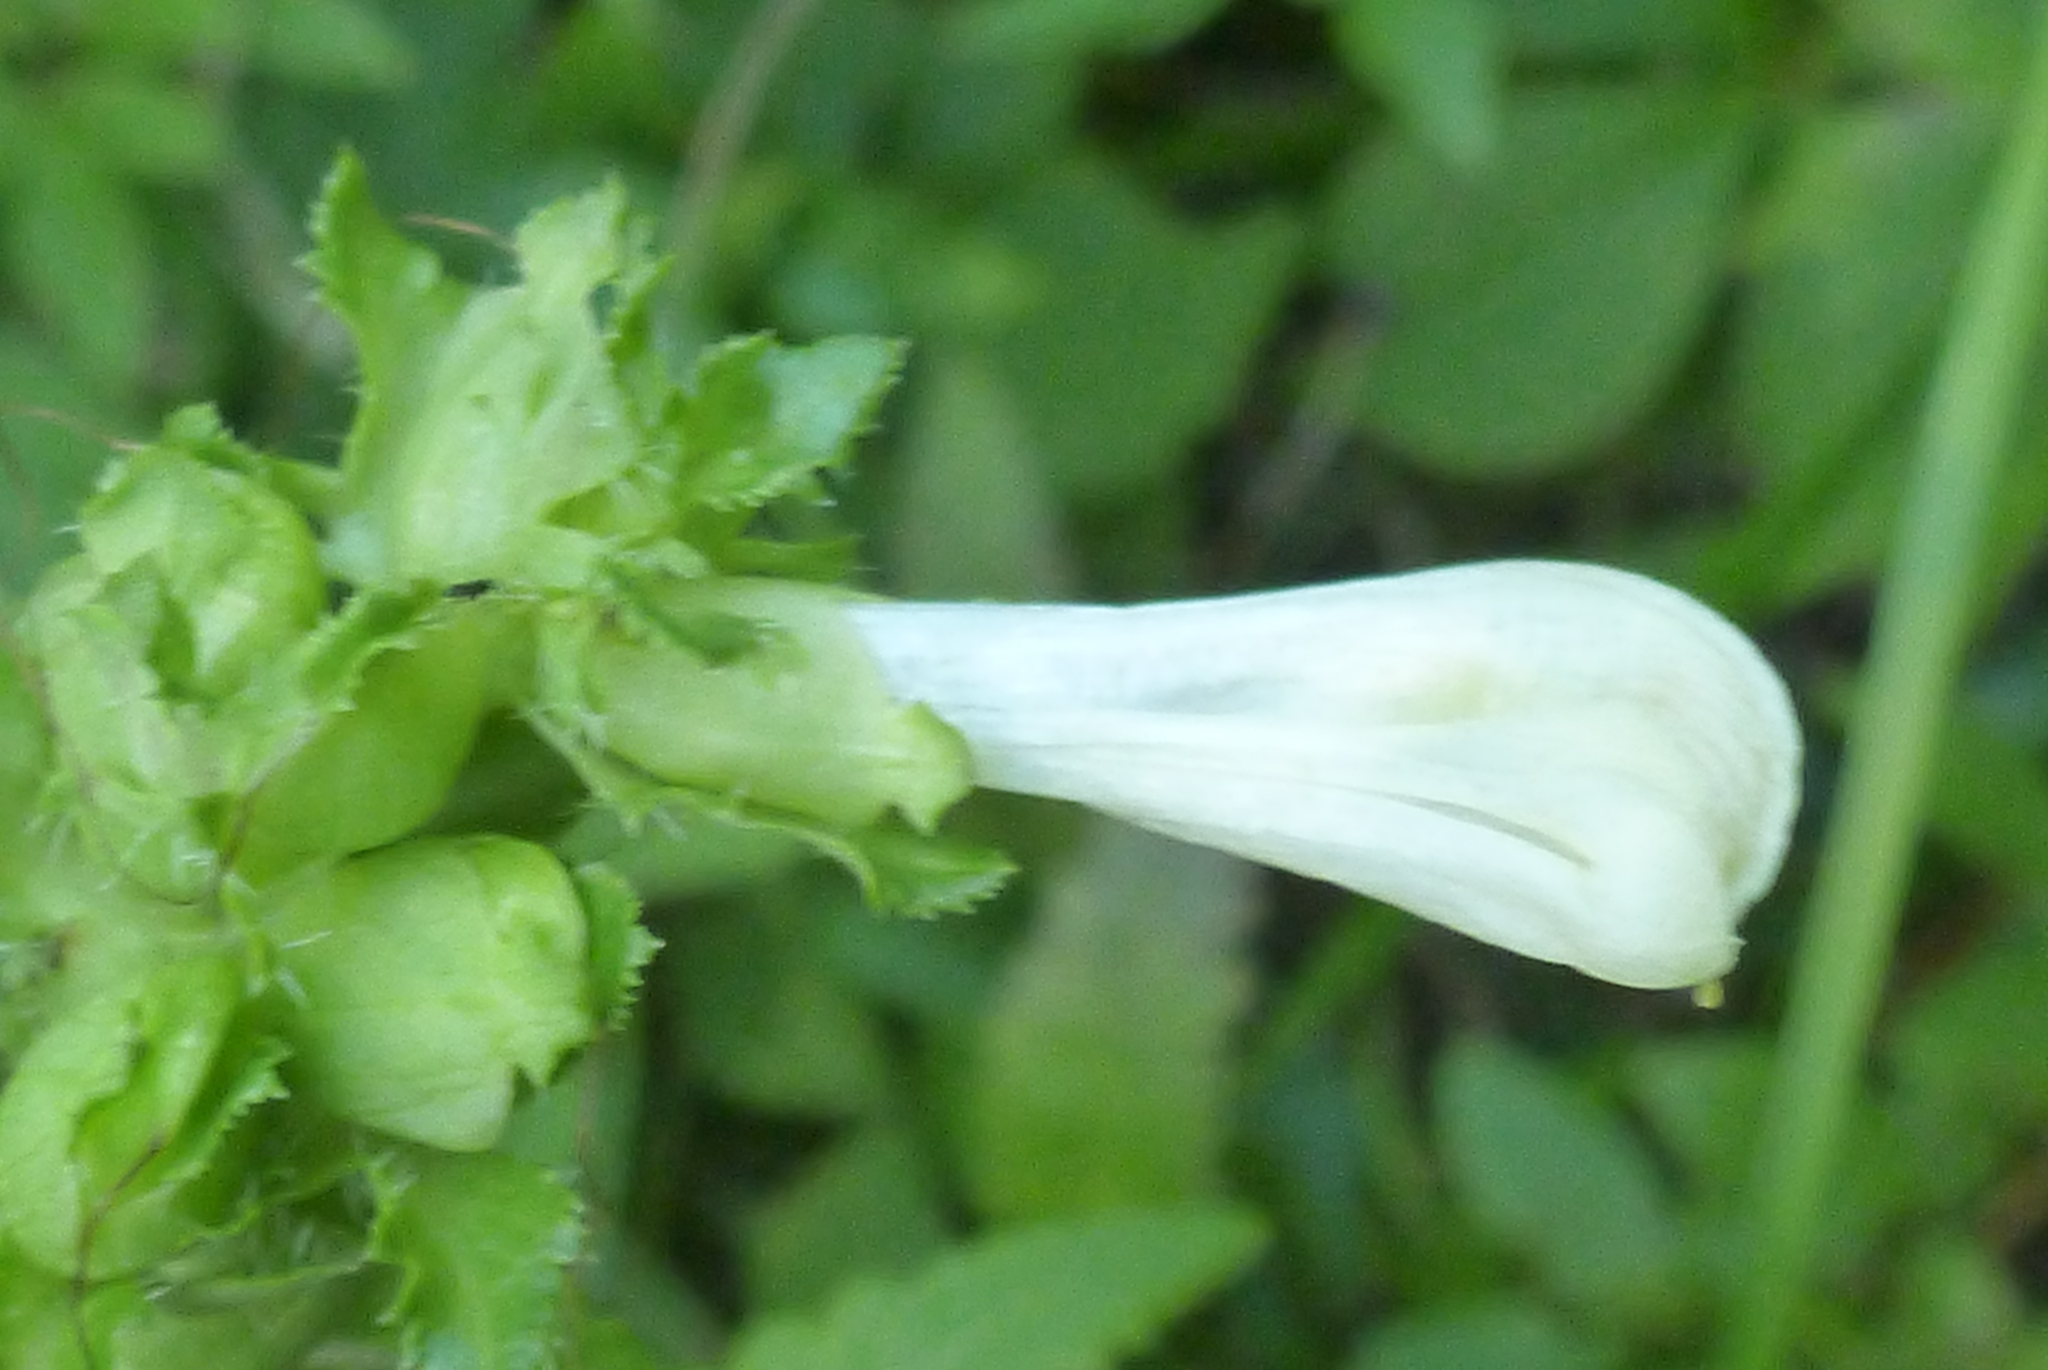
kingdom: Plantae
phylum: Tracheophyta
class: Magnoliopsida
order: Lamiales
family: Orobanchaceae
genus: Pedicularis
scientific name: Pedicularis lanceolata
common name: Swamp lousewort
